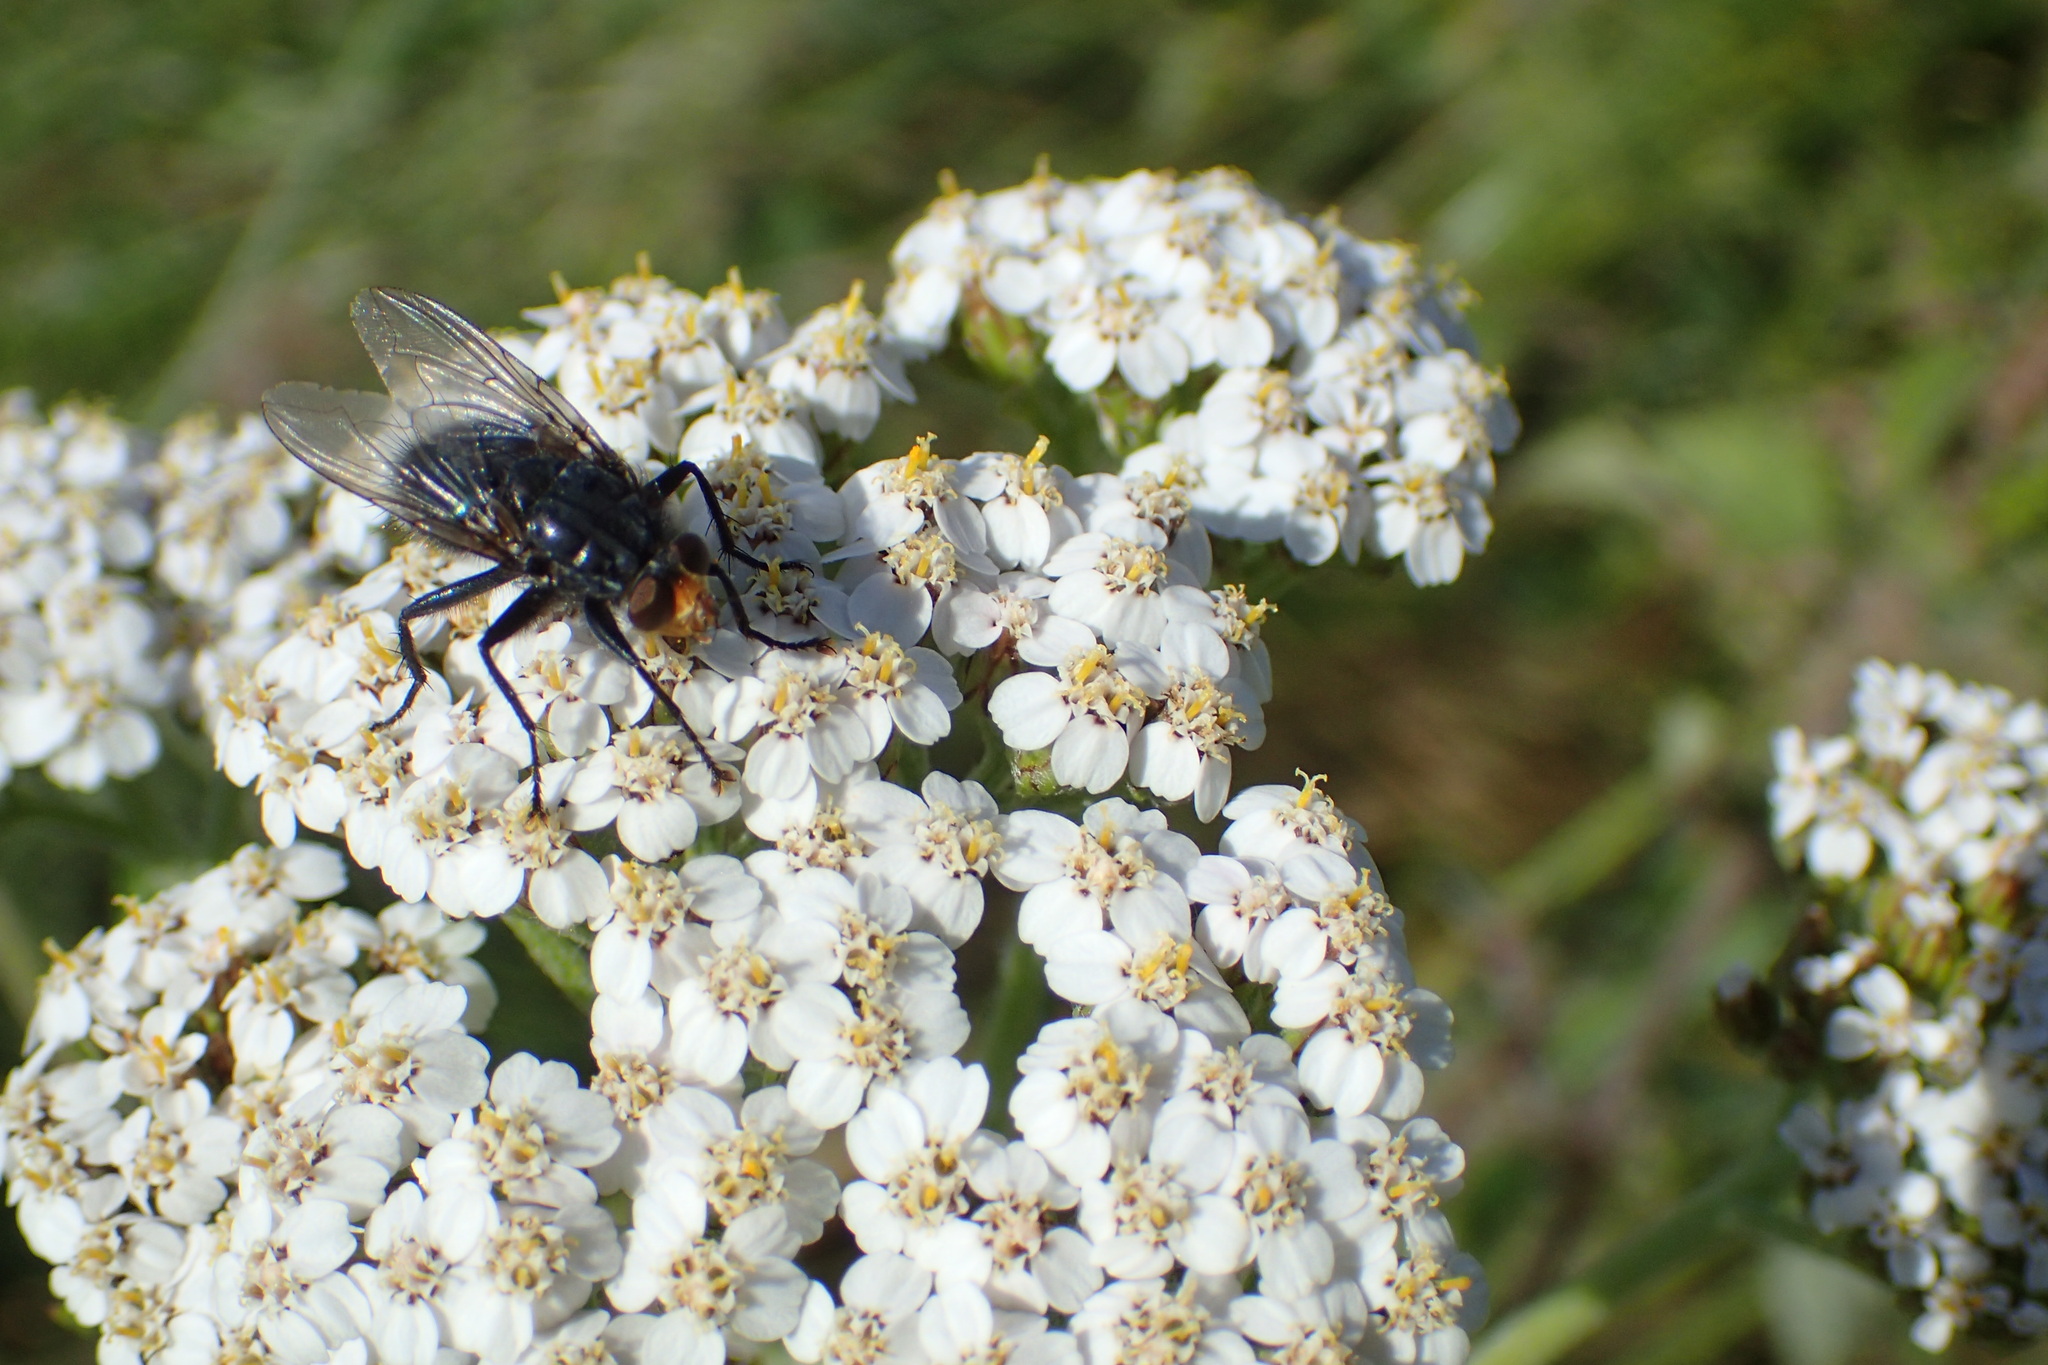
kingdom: Animalia
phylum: Arthropoda
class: Insecta
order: Diptera
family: Calliphoridae
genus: Cynomya
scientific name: Cynomya mortuorum
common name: Bluebottle blow fly
